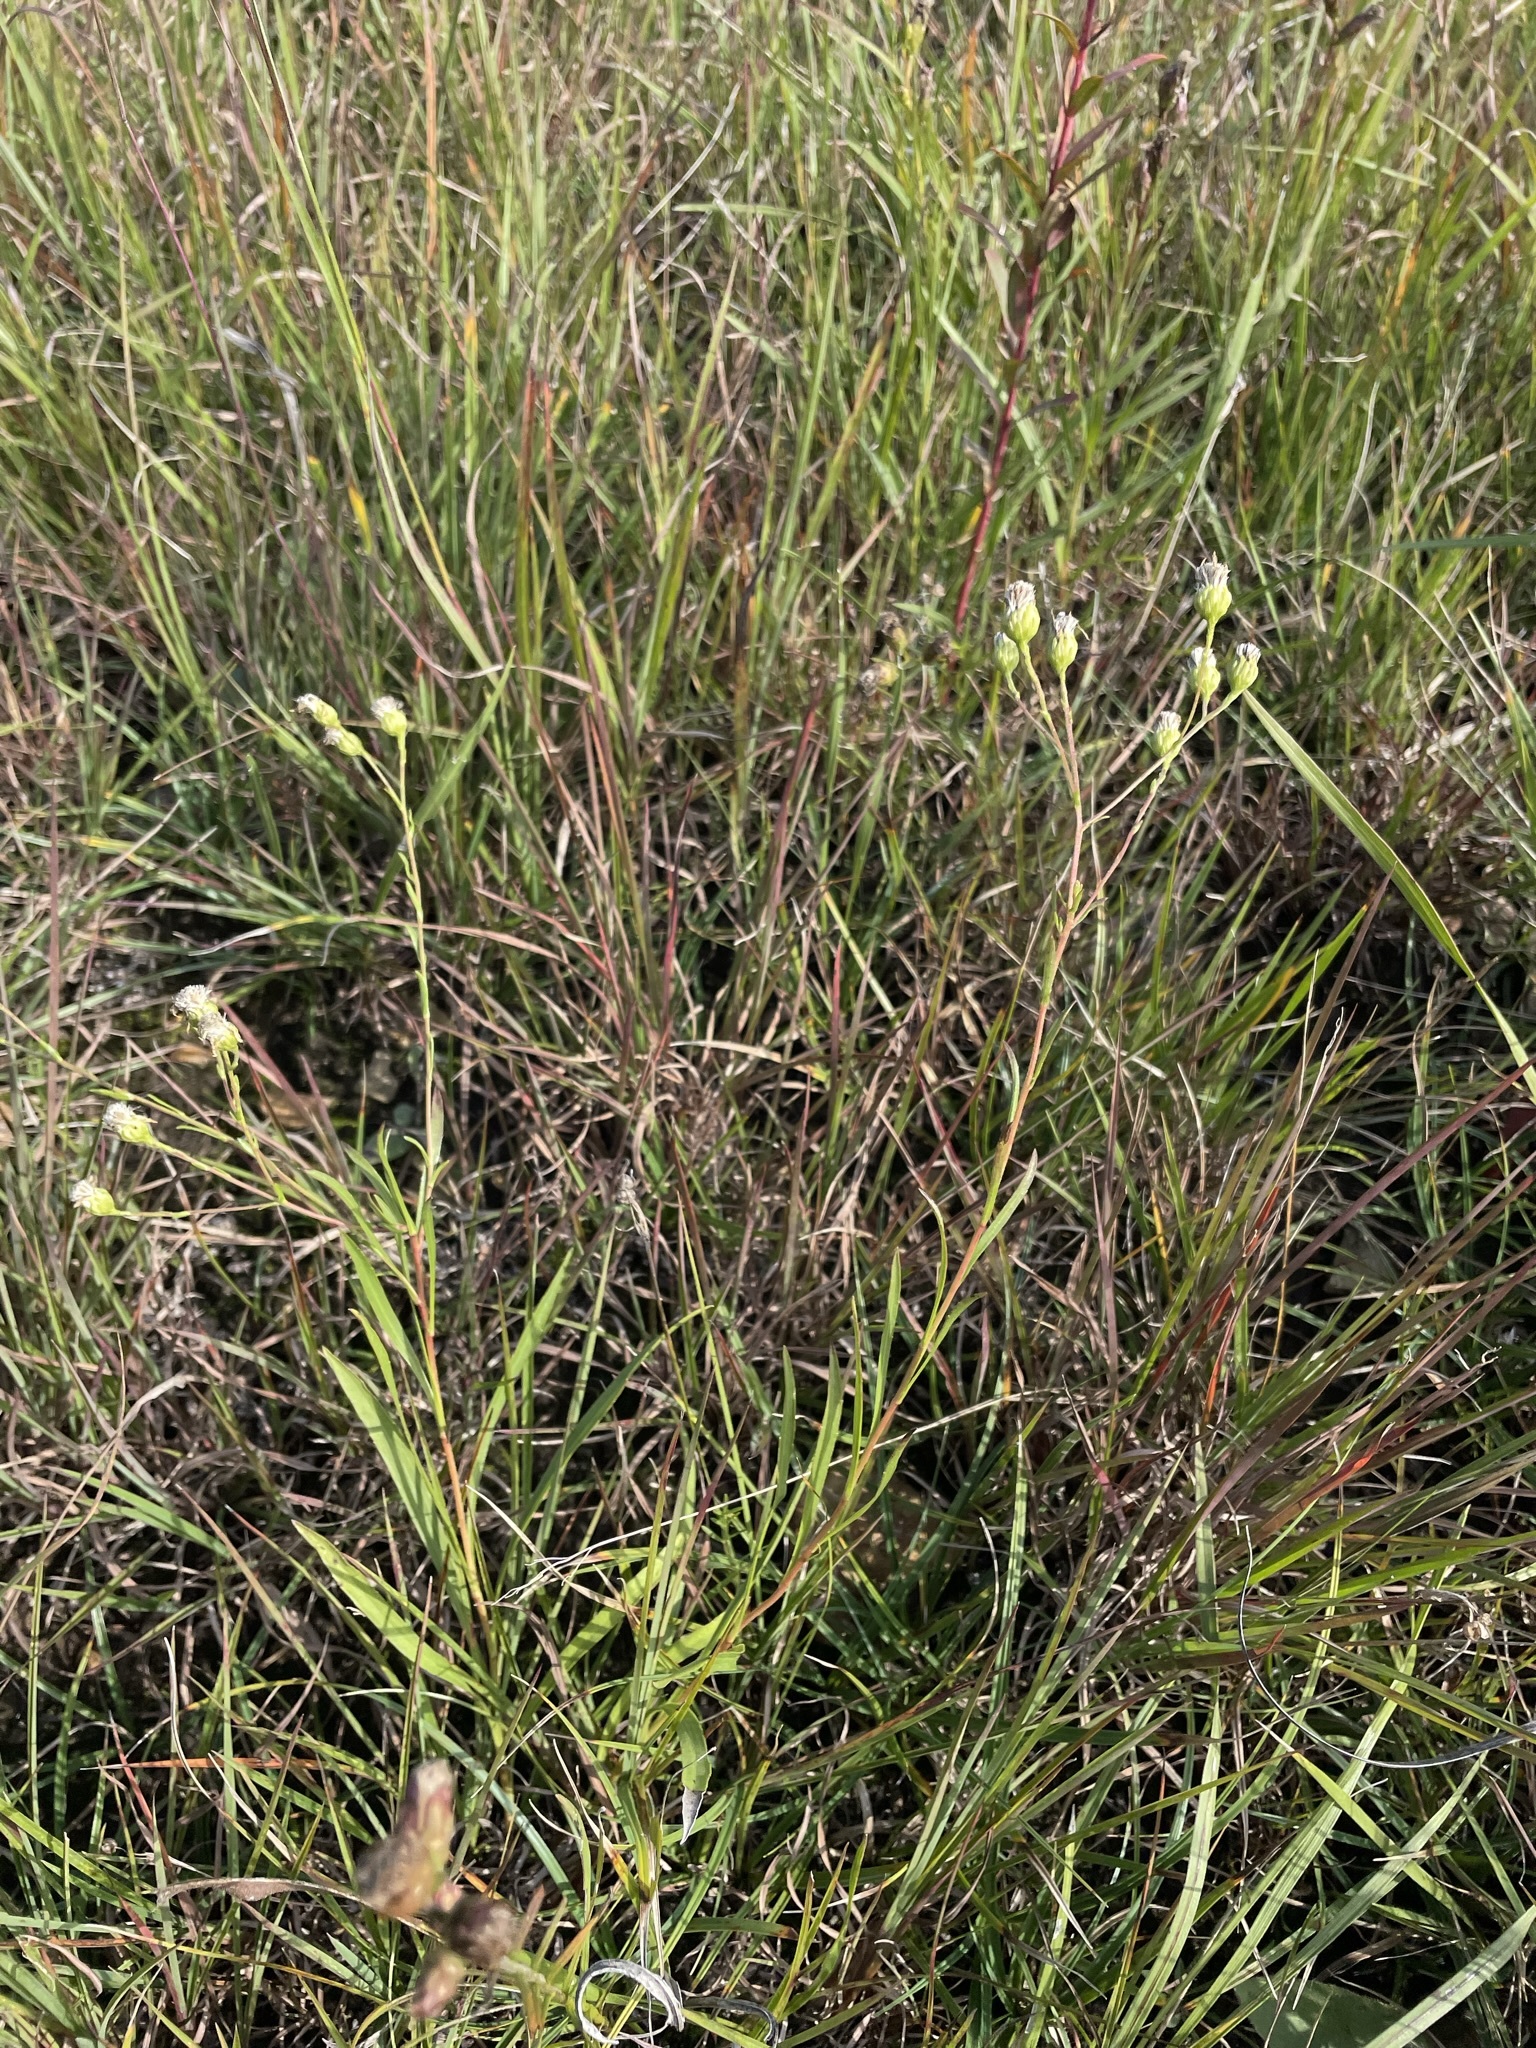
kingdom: Plantae
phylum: Tracheophyta
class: Magnoliopsida
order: Asterales
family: Asteraceae
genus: Solidago
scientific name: Solidago ptarmicoides
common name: White flat-top goldenrod
